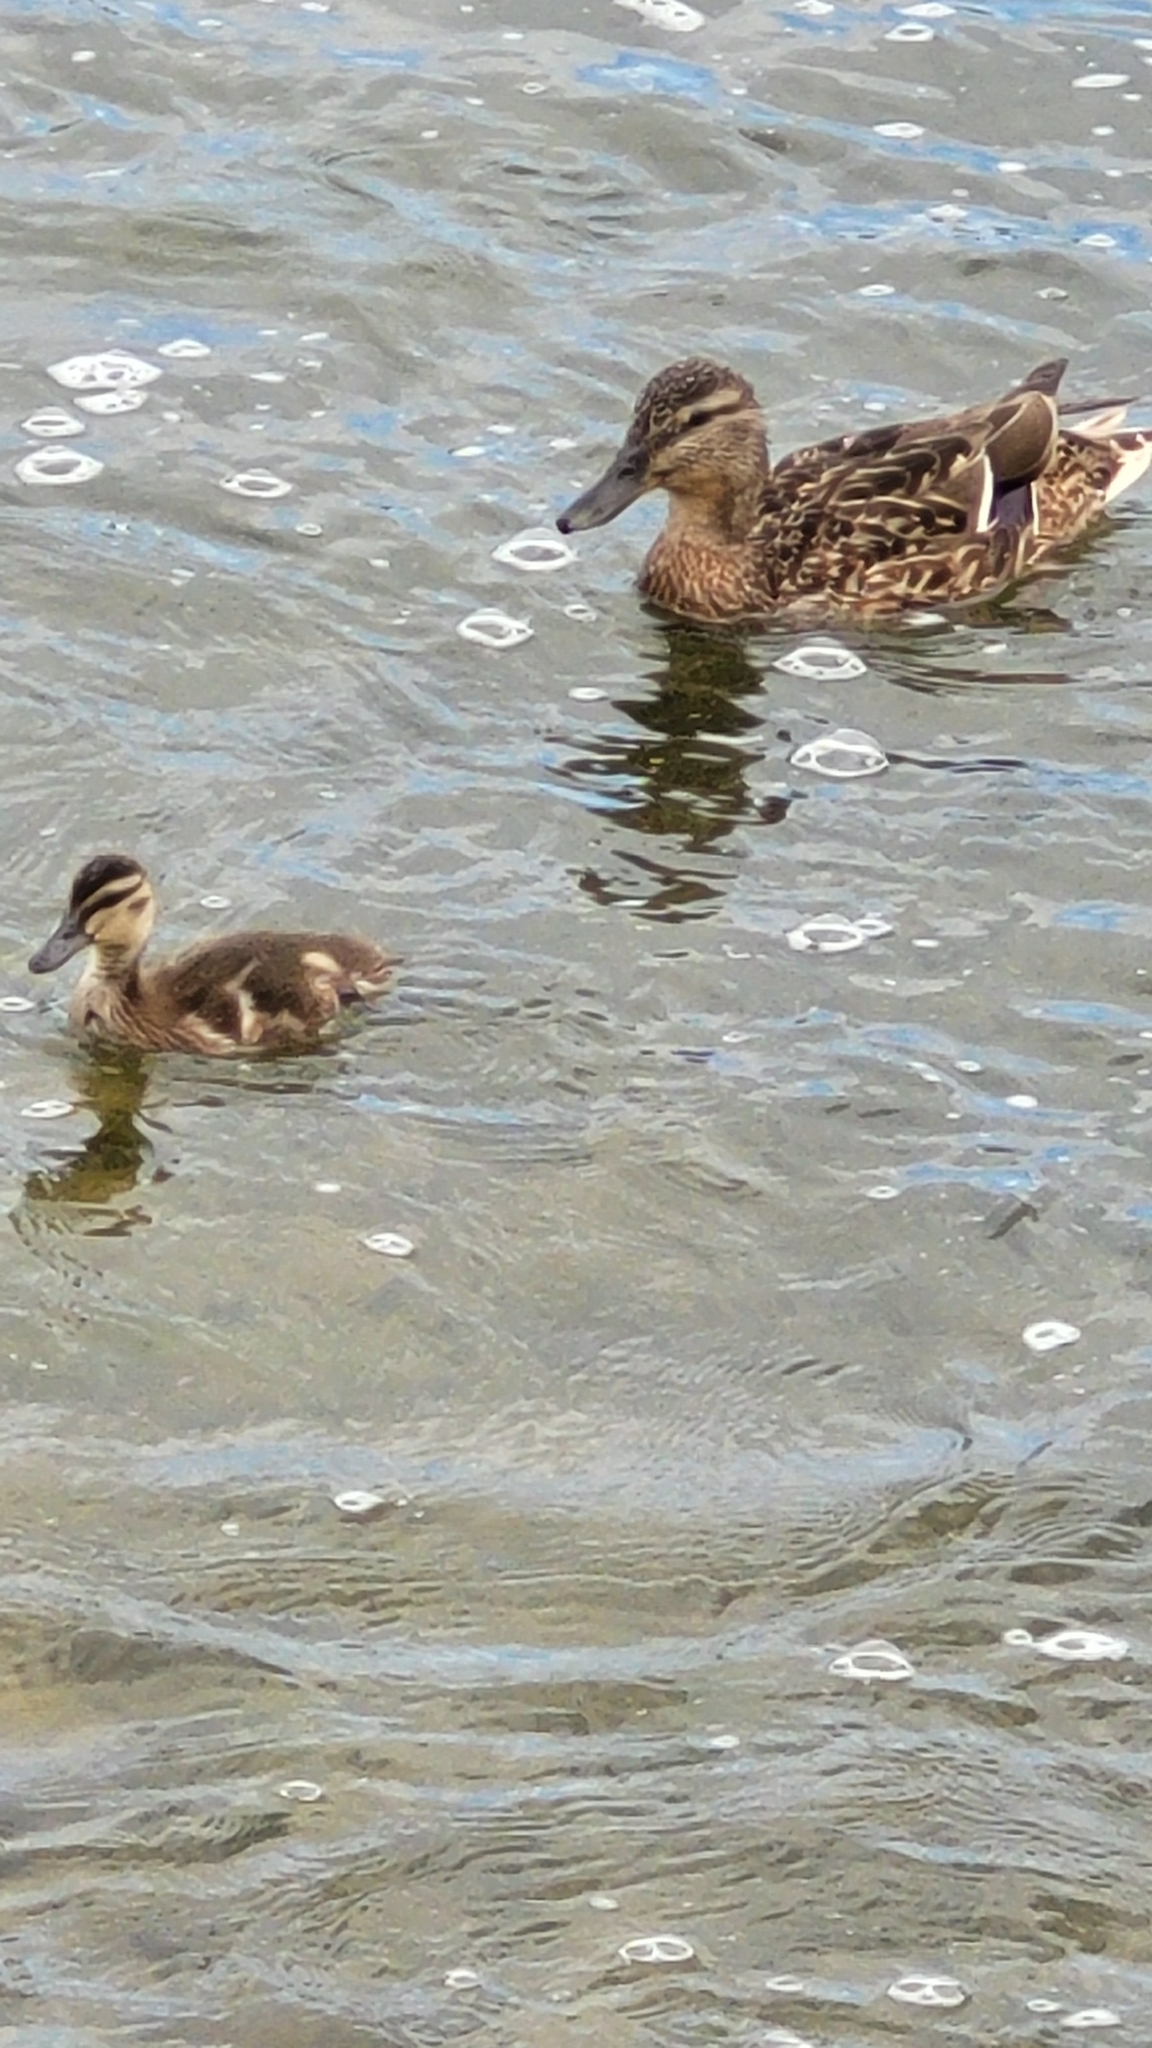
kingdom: Animalia
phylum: Chordata
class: Aves
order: Anseriformes
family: Anatidae
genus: Anas
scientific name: Anas platyrhynchos
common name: Mallard
